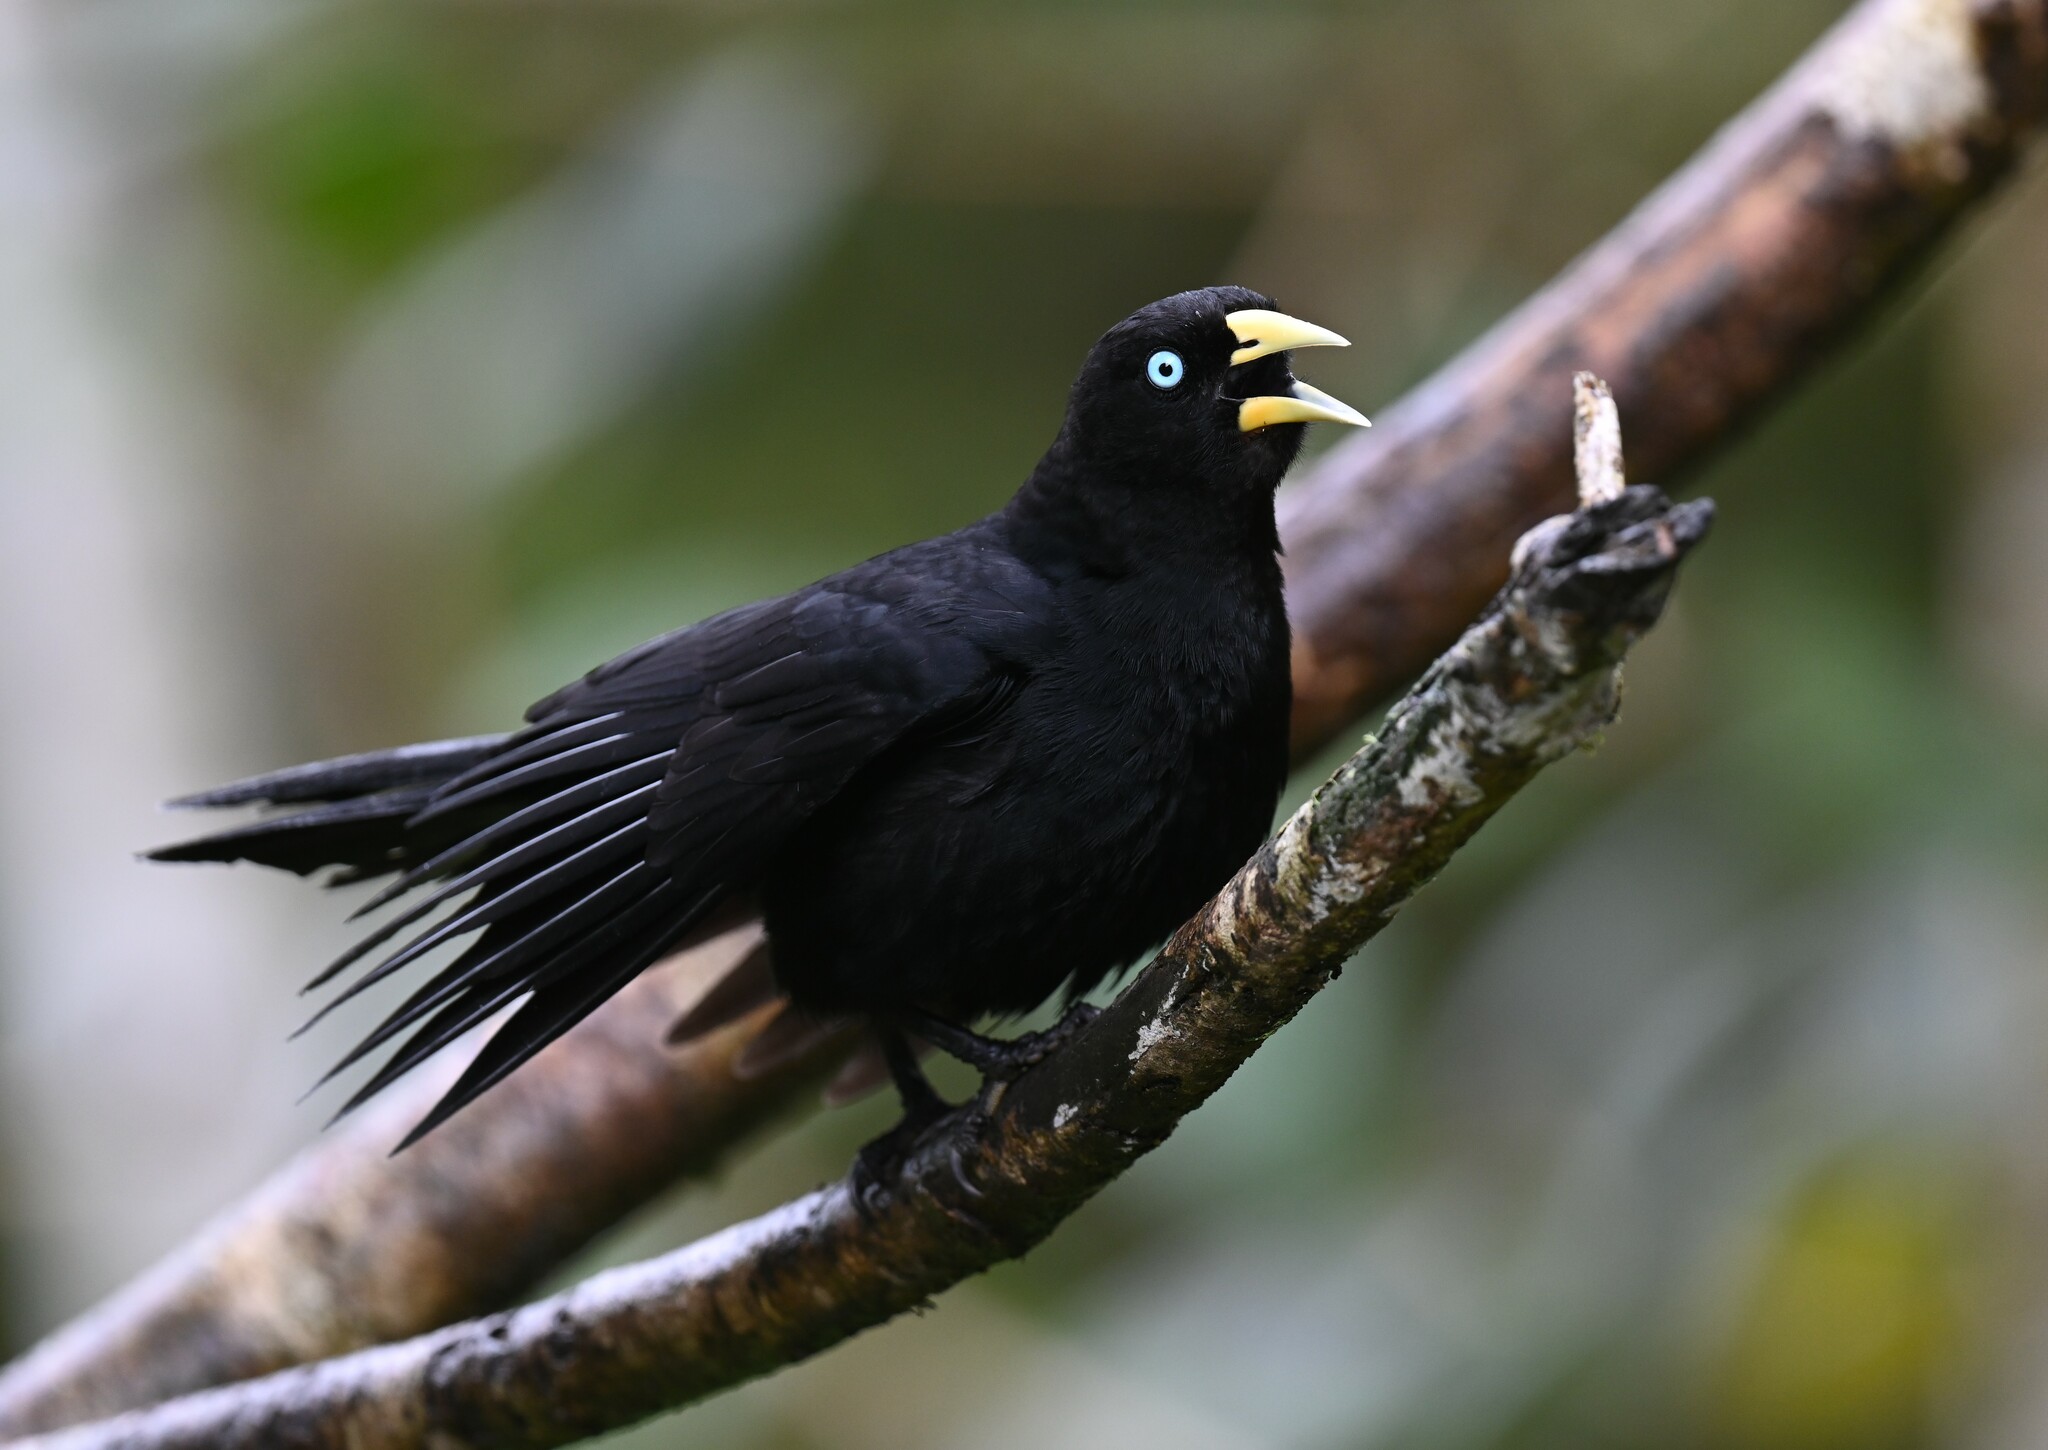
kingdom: Animalia
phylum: Chordata
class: Aves
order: Passeriformes
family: Icteridae
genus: Cacicus
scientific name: Cacicus uropygialis
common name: Scarlet-rumped cacique
